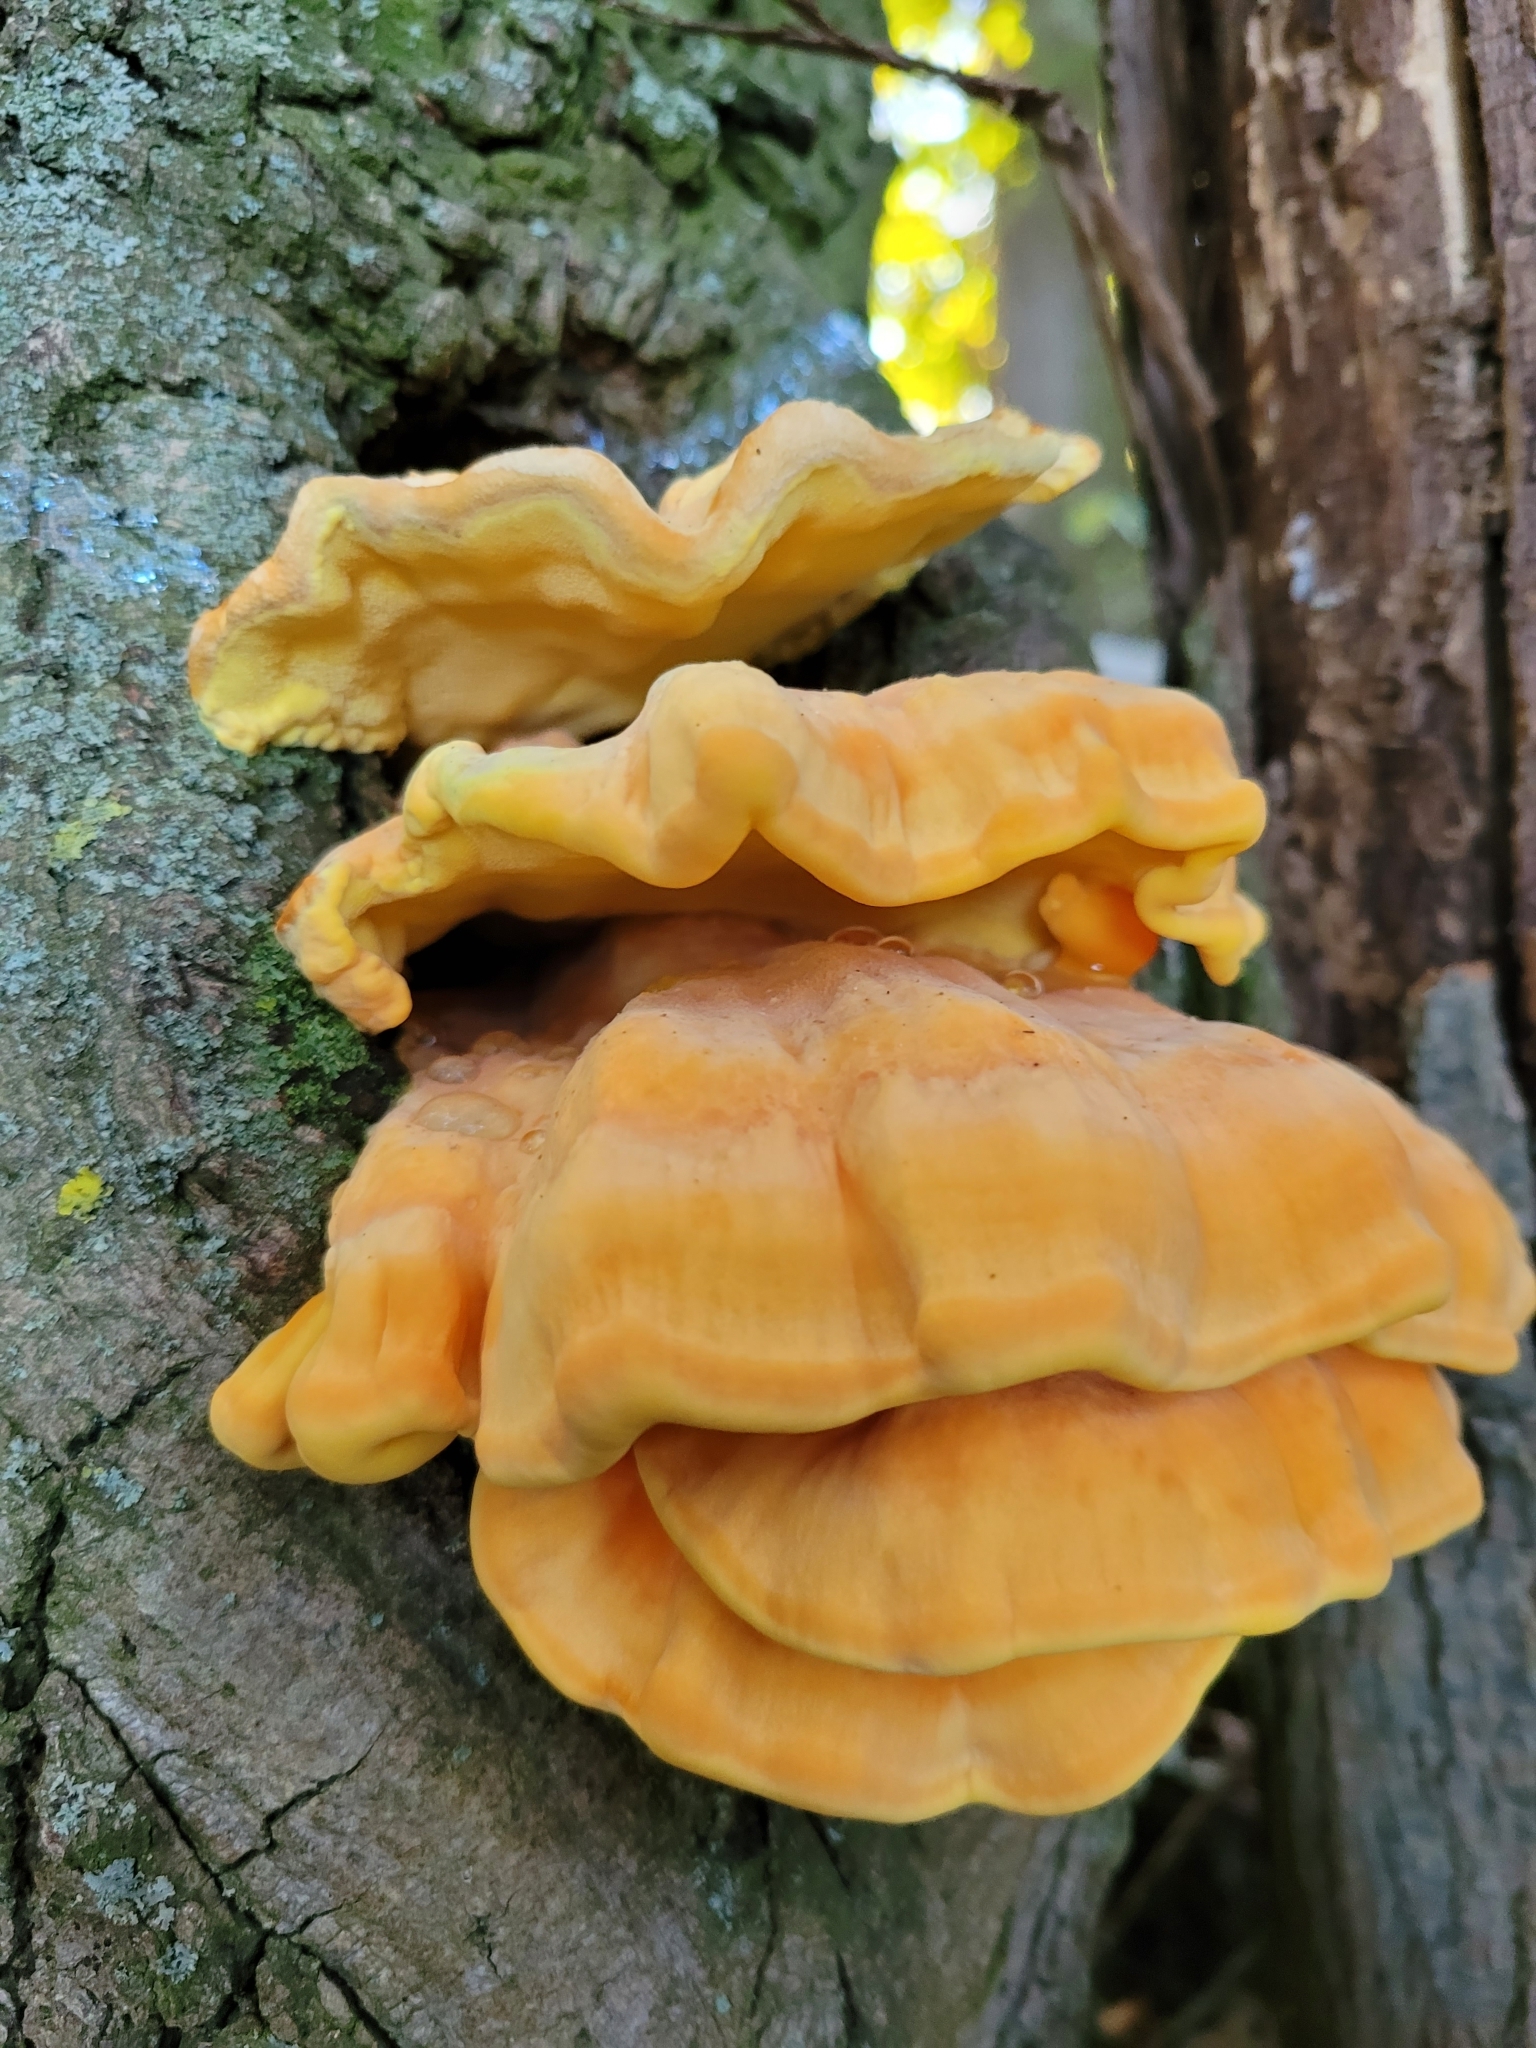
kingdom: Fungi
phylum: Basidiomycota
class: Agaricomycetes
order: Polyporales
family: Laetiporaceae
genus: Laetiporus
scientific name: Laetiporus sulphureus
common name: Chicken of the woods
